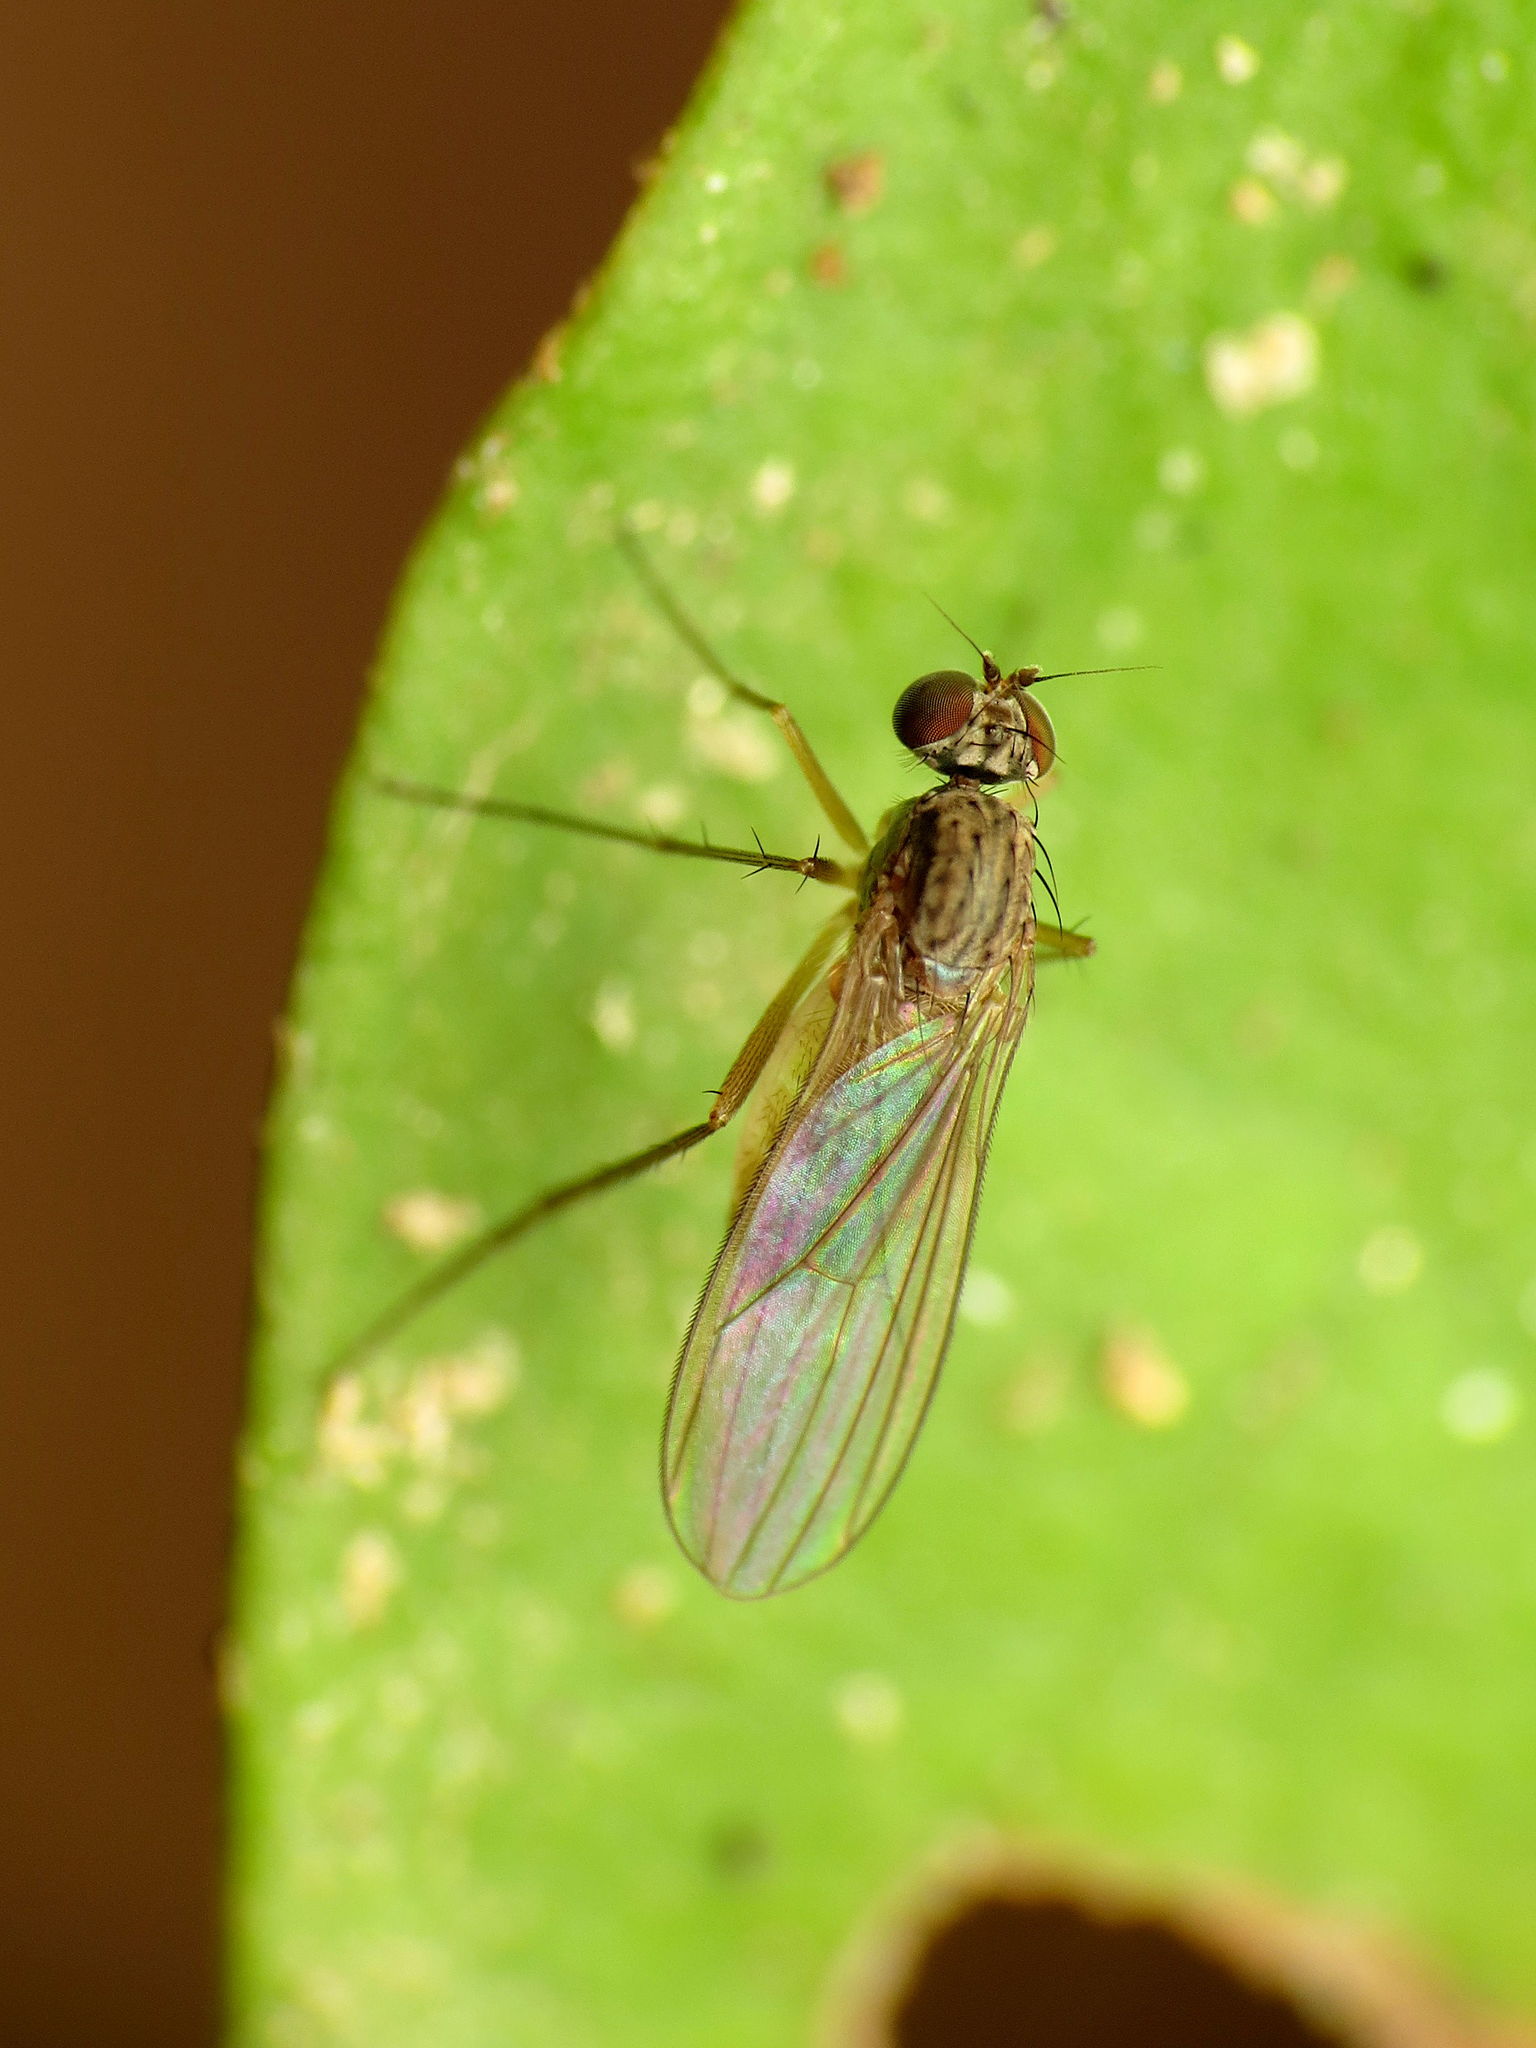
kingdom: Animalia
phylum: Arthropoda
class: Insecta
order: Diptera
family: Dolichopodidae
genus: Sympycnus
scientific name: Sympycnus lineatus
